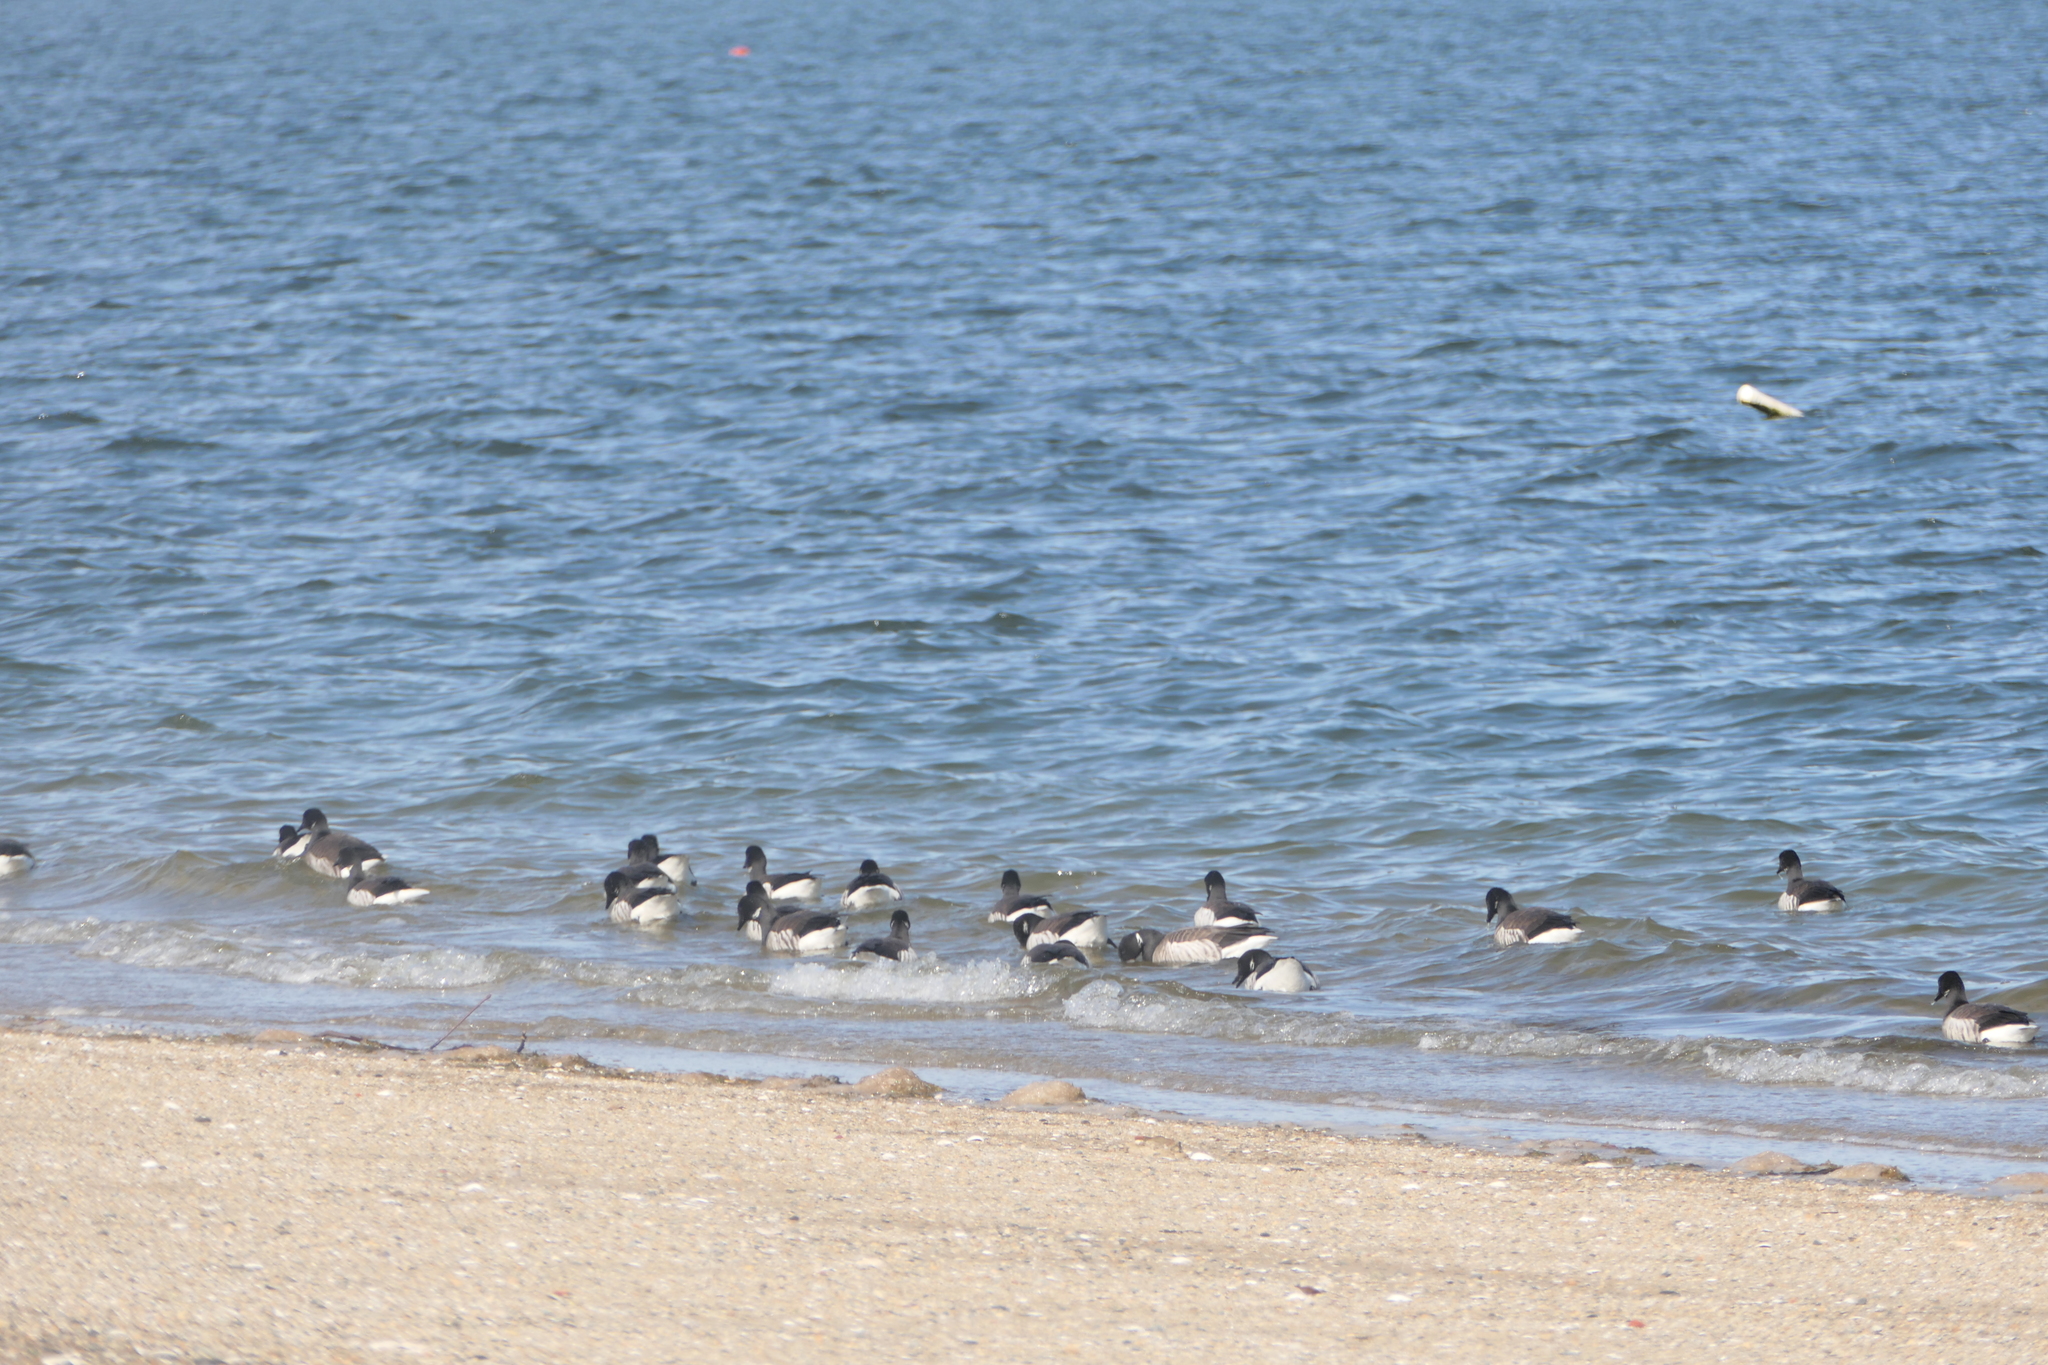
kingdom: Animalia
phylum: Chordata
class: Aves
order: Anseriformes
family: Anatidae
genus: Branta
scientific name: Branta bernicla
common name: Brant goose
